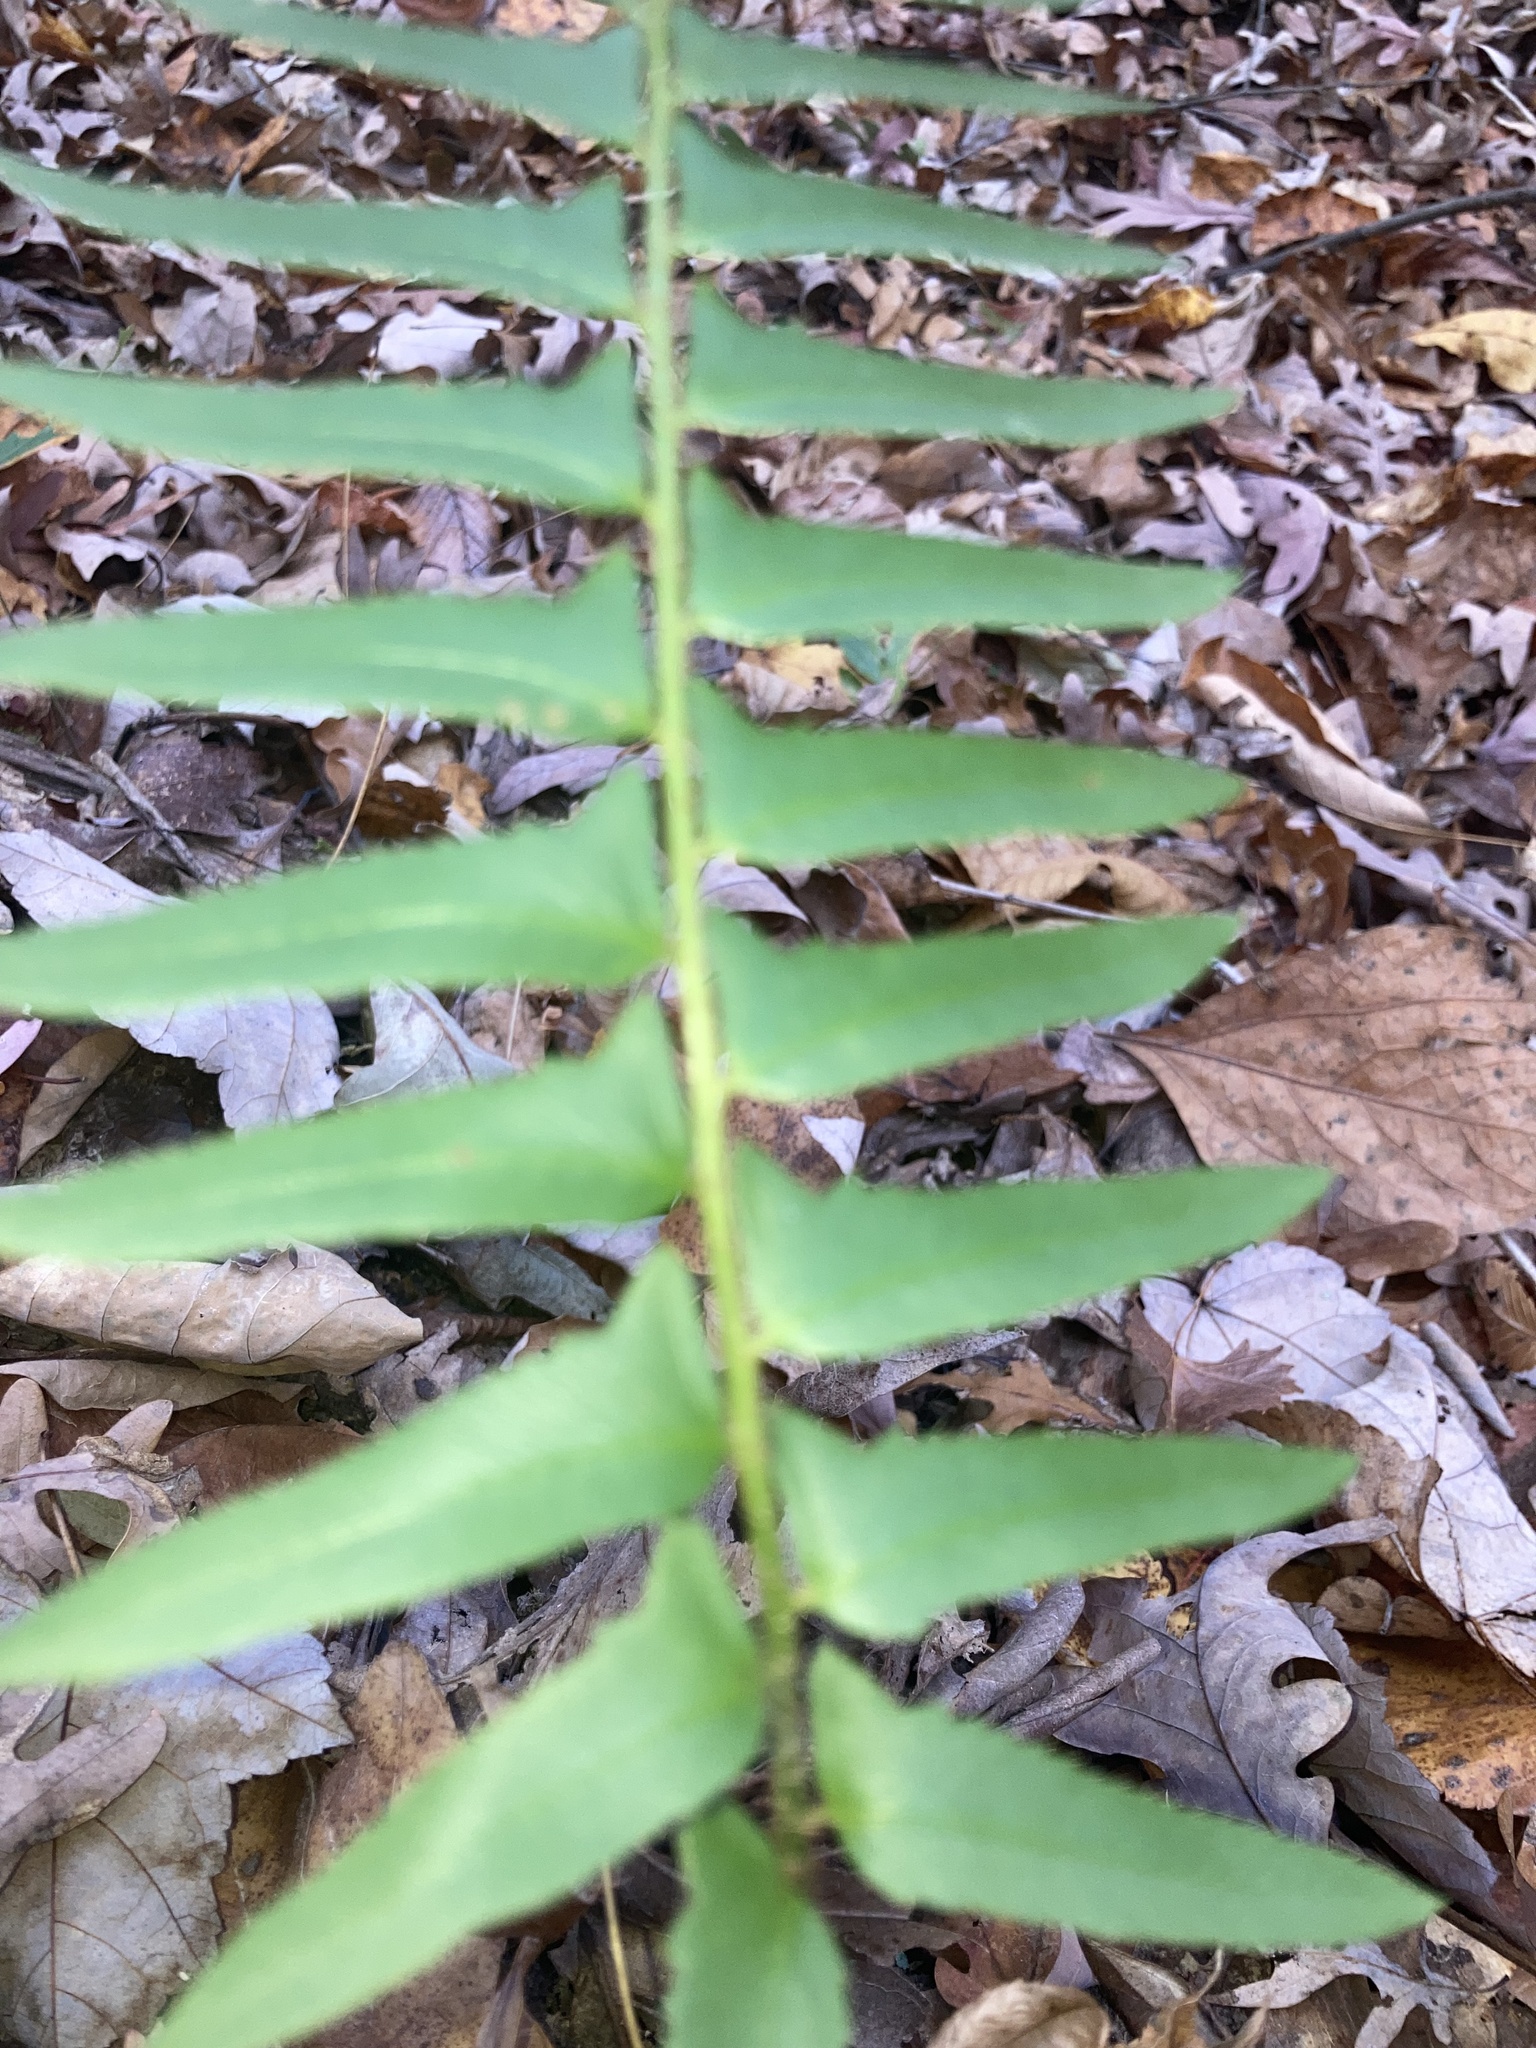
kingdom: Plantae
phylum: Tracheophyta
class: Polypodiopsida
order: Polypodiales
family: Dryopteridaceae
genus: Polystichum
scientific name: Polystichum acrostichoides
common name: Christmas fern
